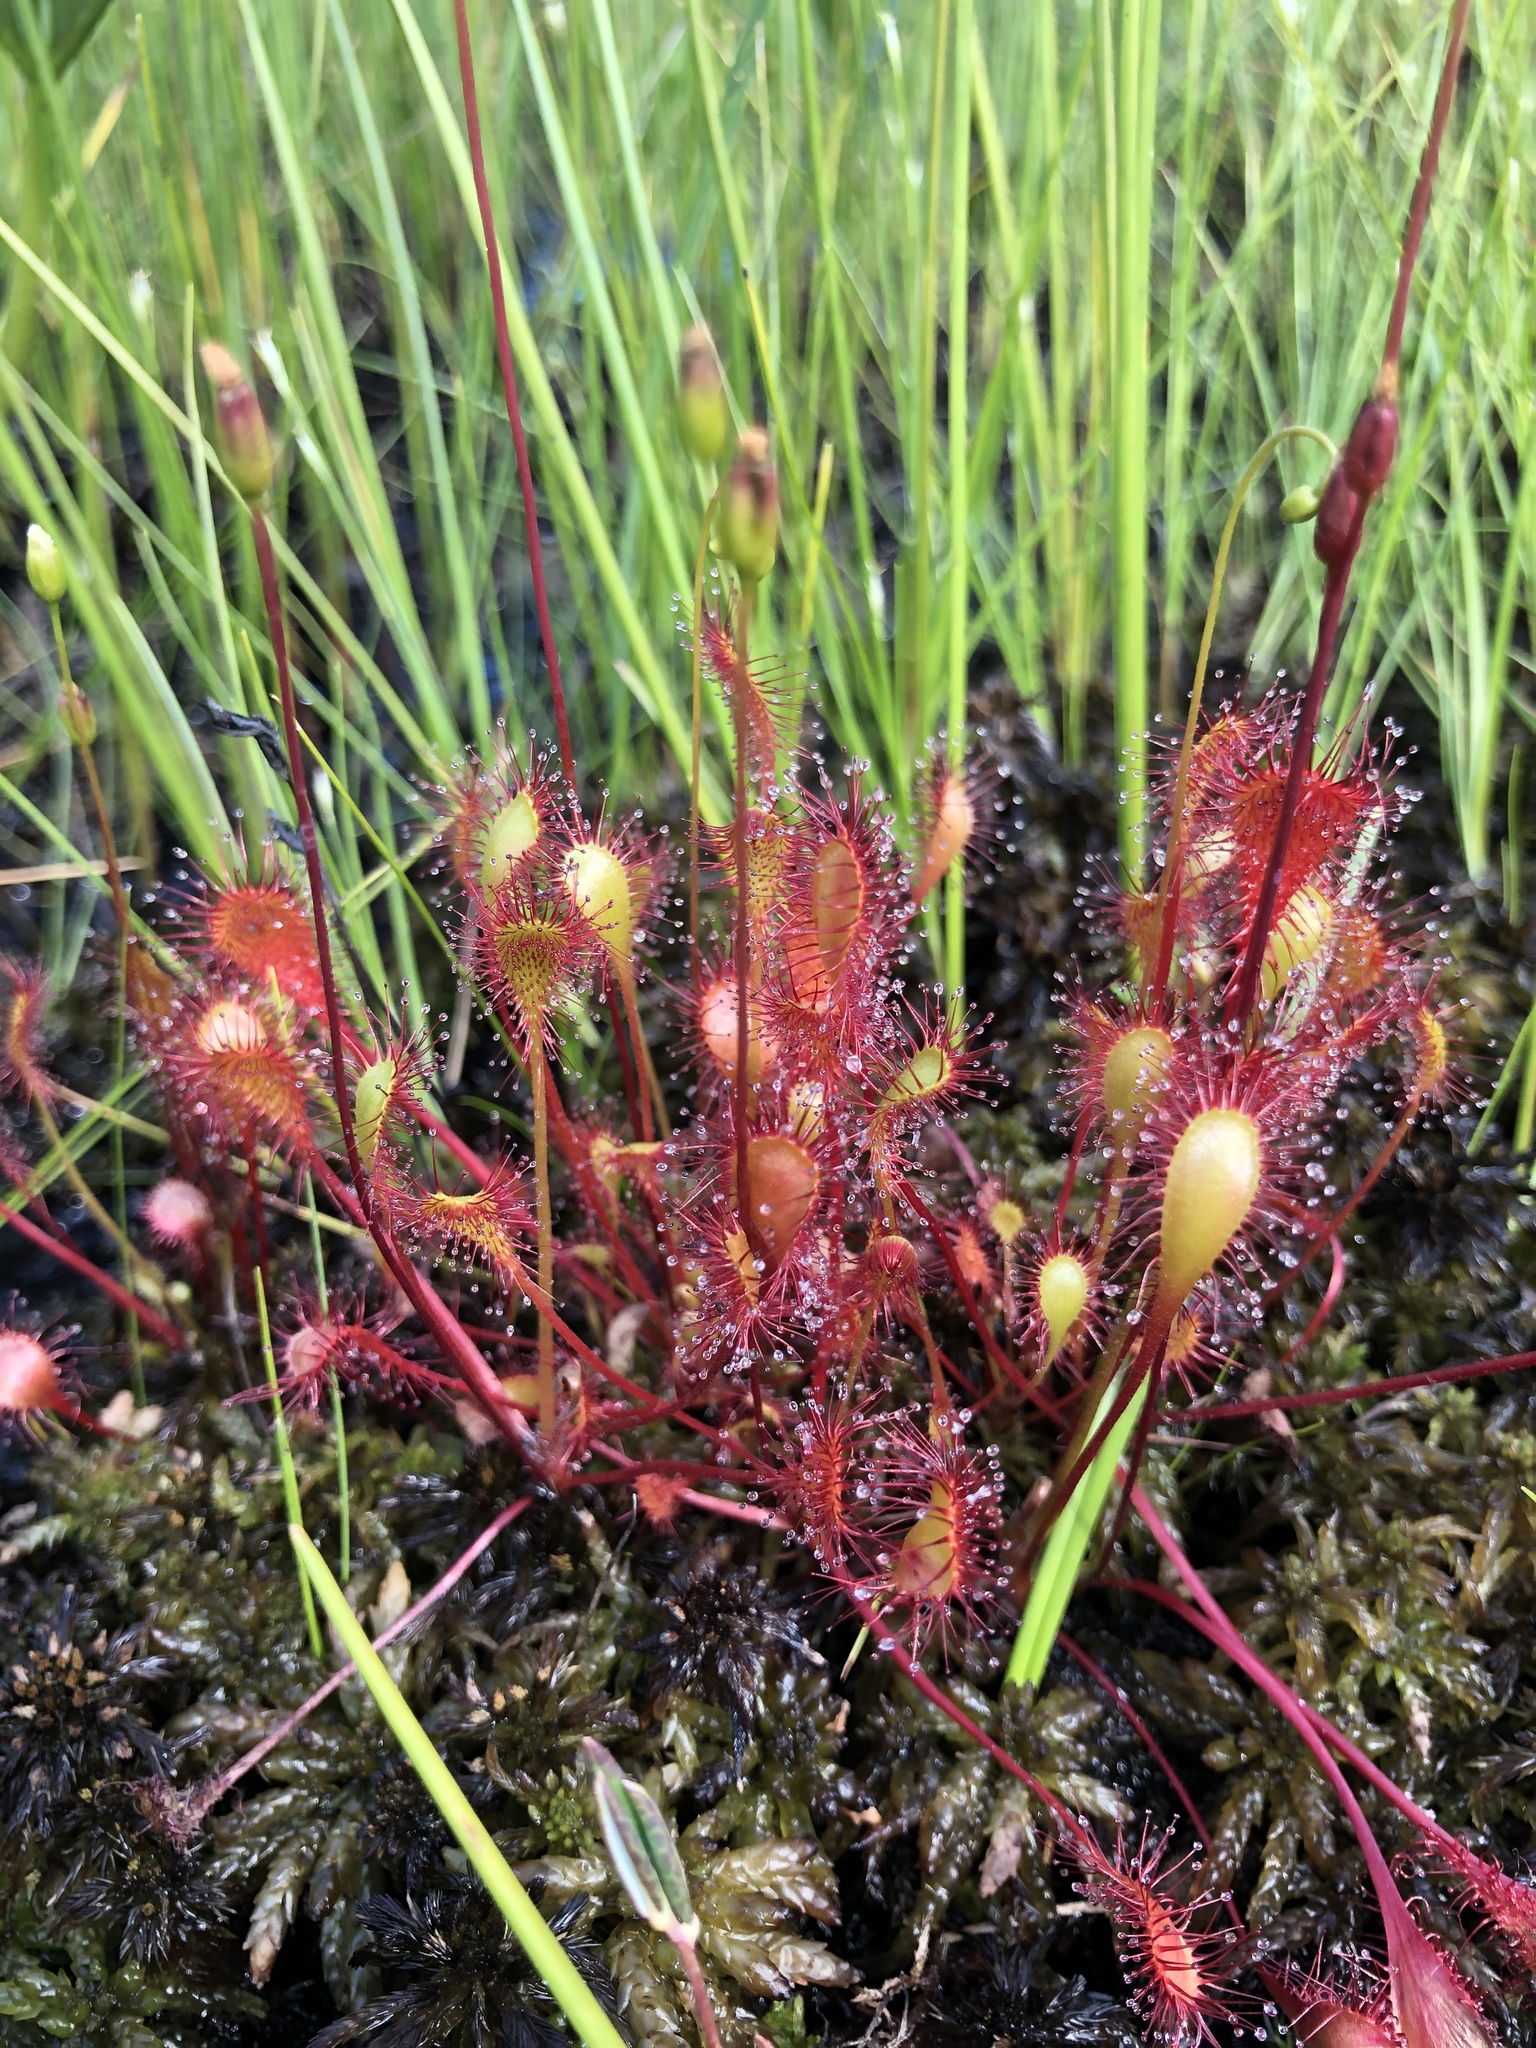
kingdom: Plantae
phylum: Tracheophyta
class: Magnoliopsida
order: Caryophyllales
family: Droseraceae
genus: Drosera
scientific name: Drosera anglica
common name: Great sundew
